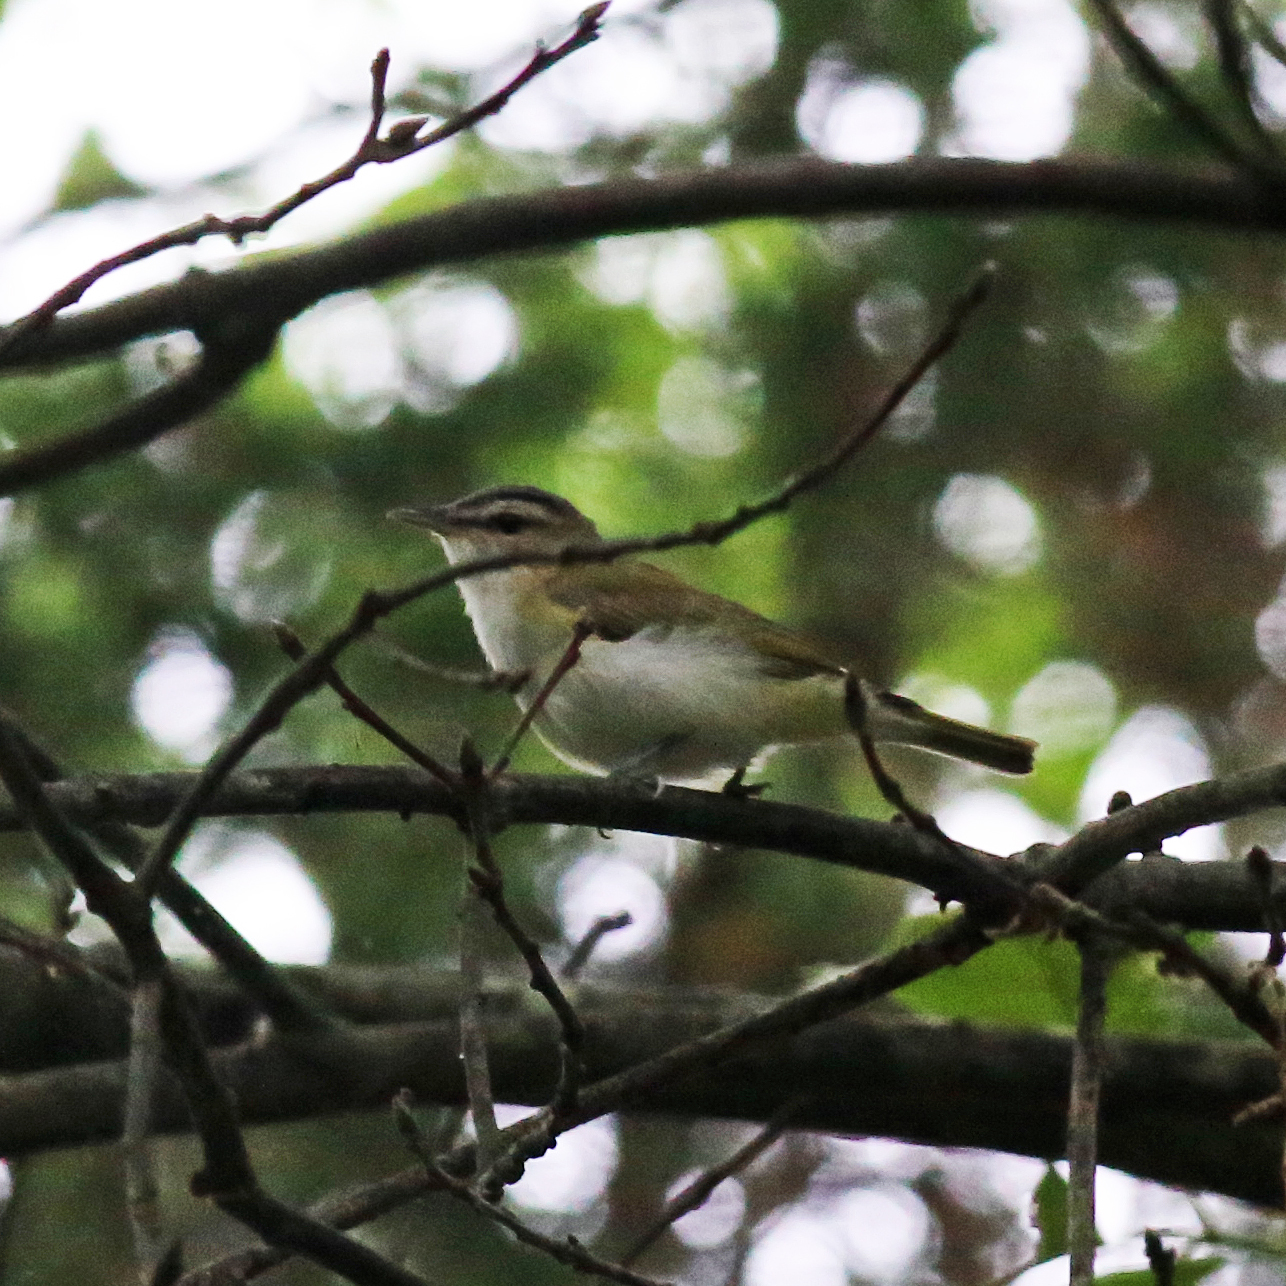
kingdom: Animalia
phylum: Chordata
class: Aves
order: Passeriformes
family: Vireonidae
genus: Vireo
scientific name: Vireo olivaceus
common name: Red-eyed vireo
